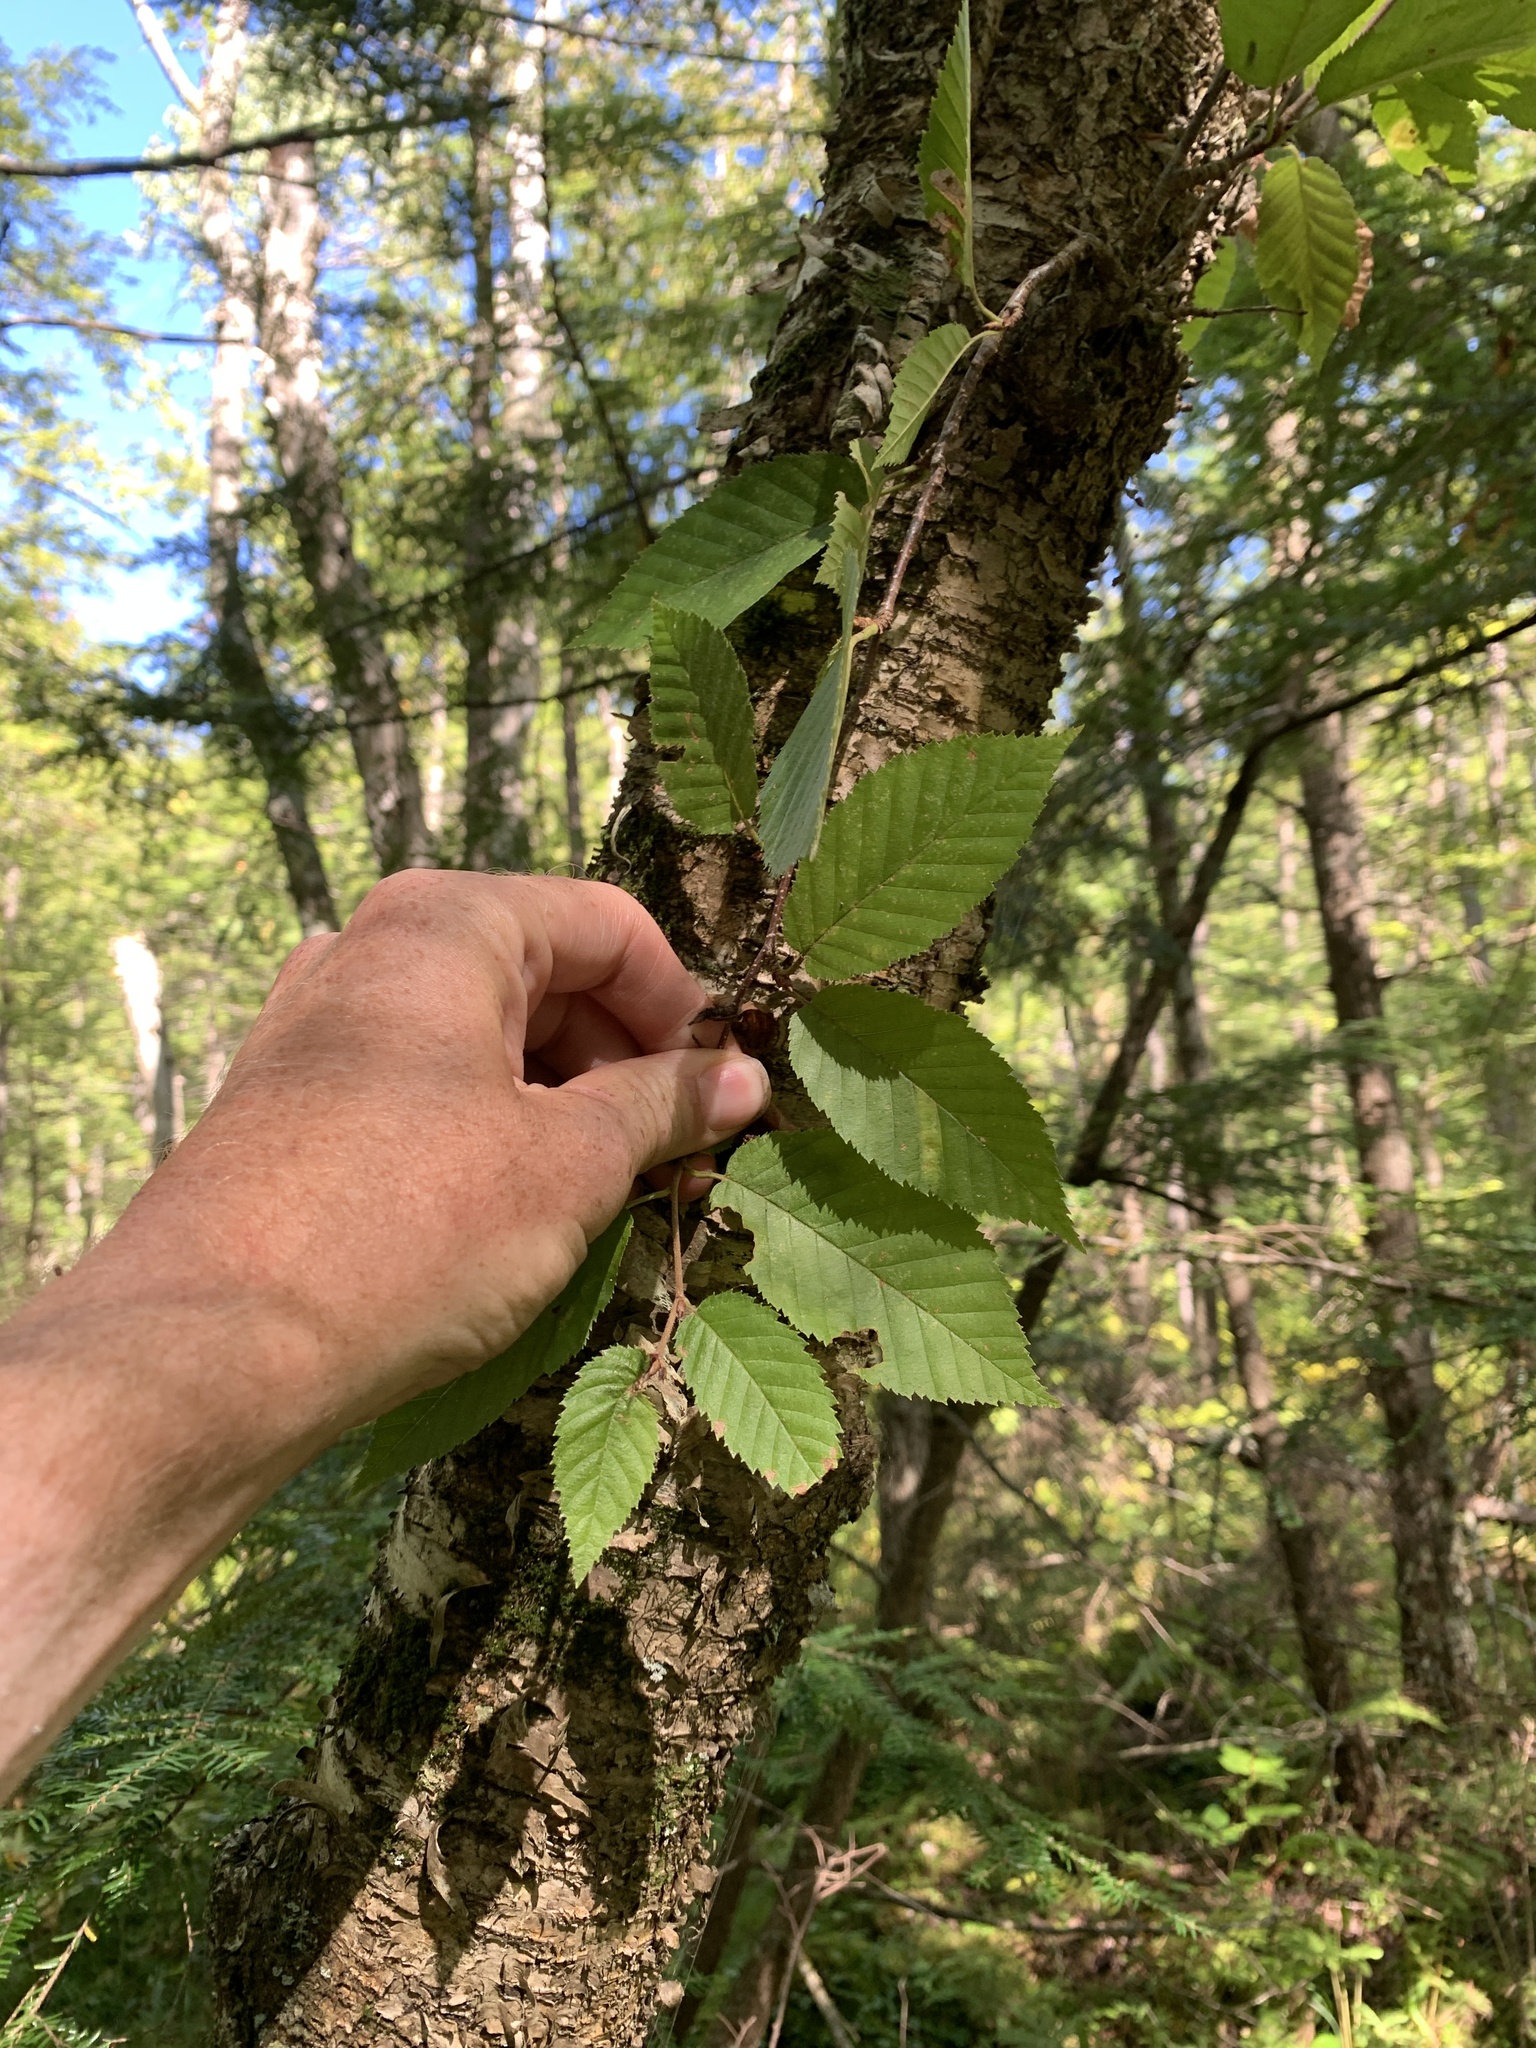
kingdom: Plantae
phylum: Tracheophyta
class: Magnoliopsida
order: Fagales
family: Betulaceae
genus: Betula
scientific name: Betula alleghaniensis
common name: Yellow birch
